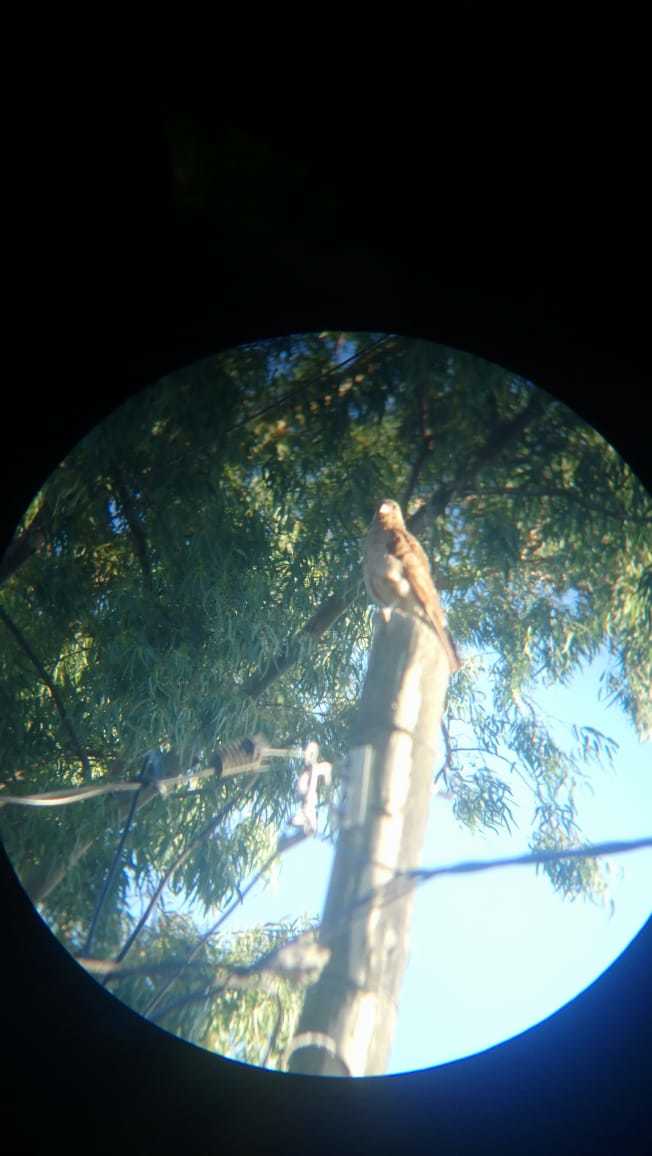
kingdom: Animalia
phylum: Chordata
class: Aves
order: Falconiformes
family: Falconidae
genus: Daptrius
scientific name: Daptrius
